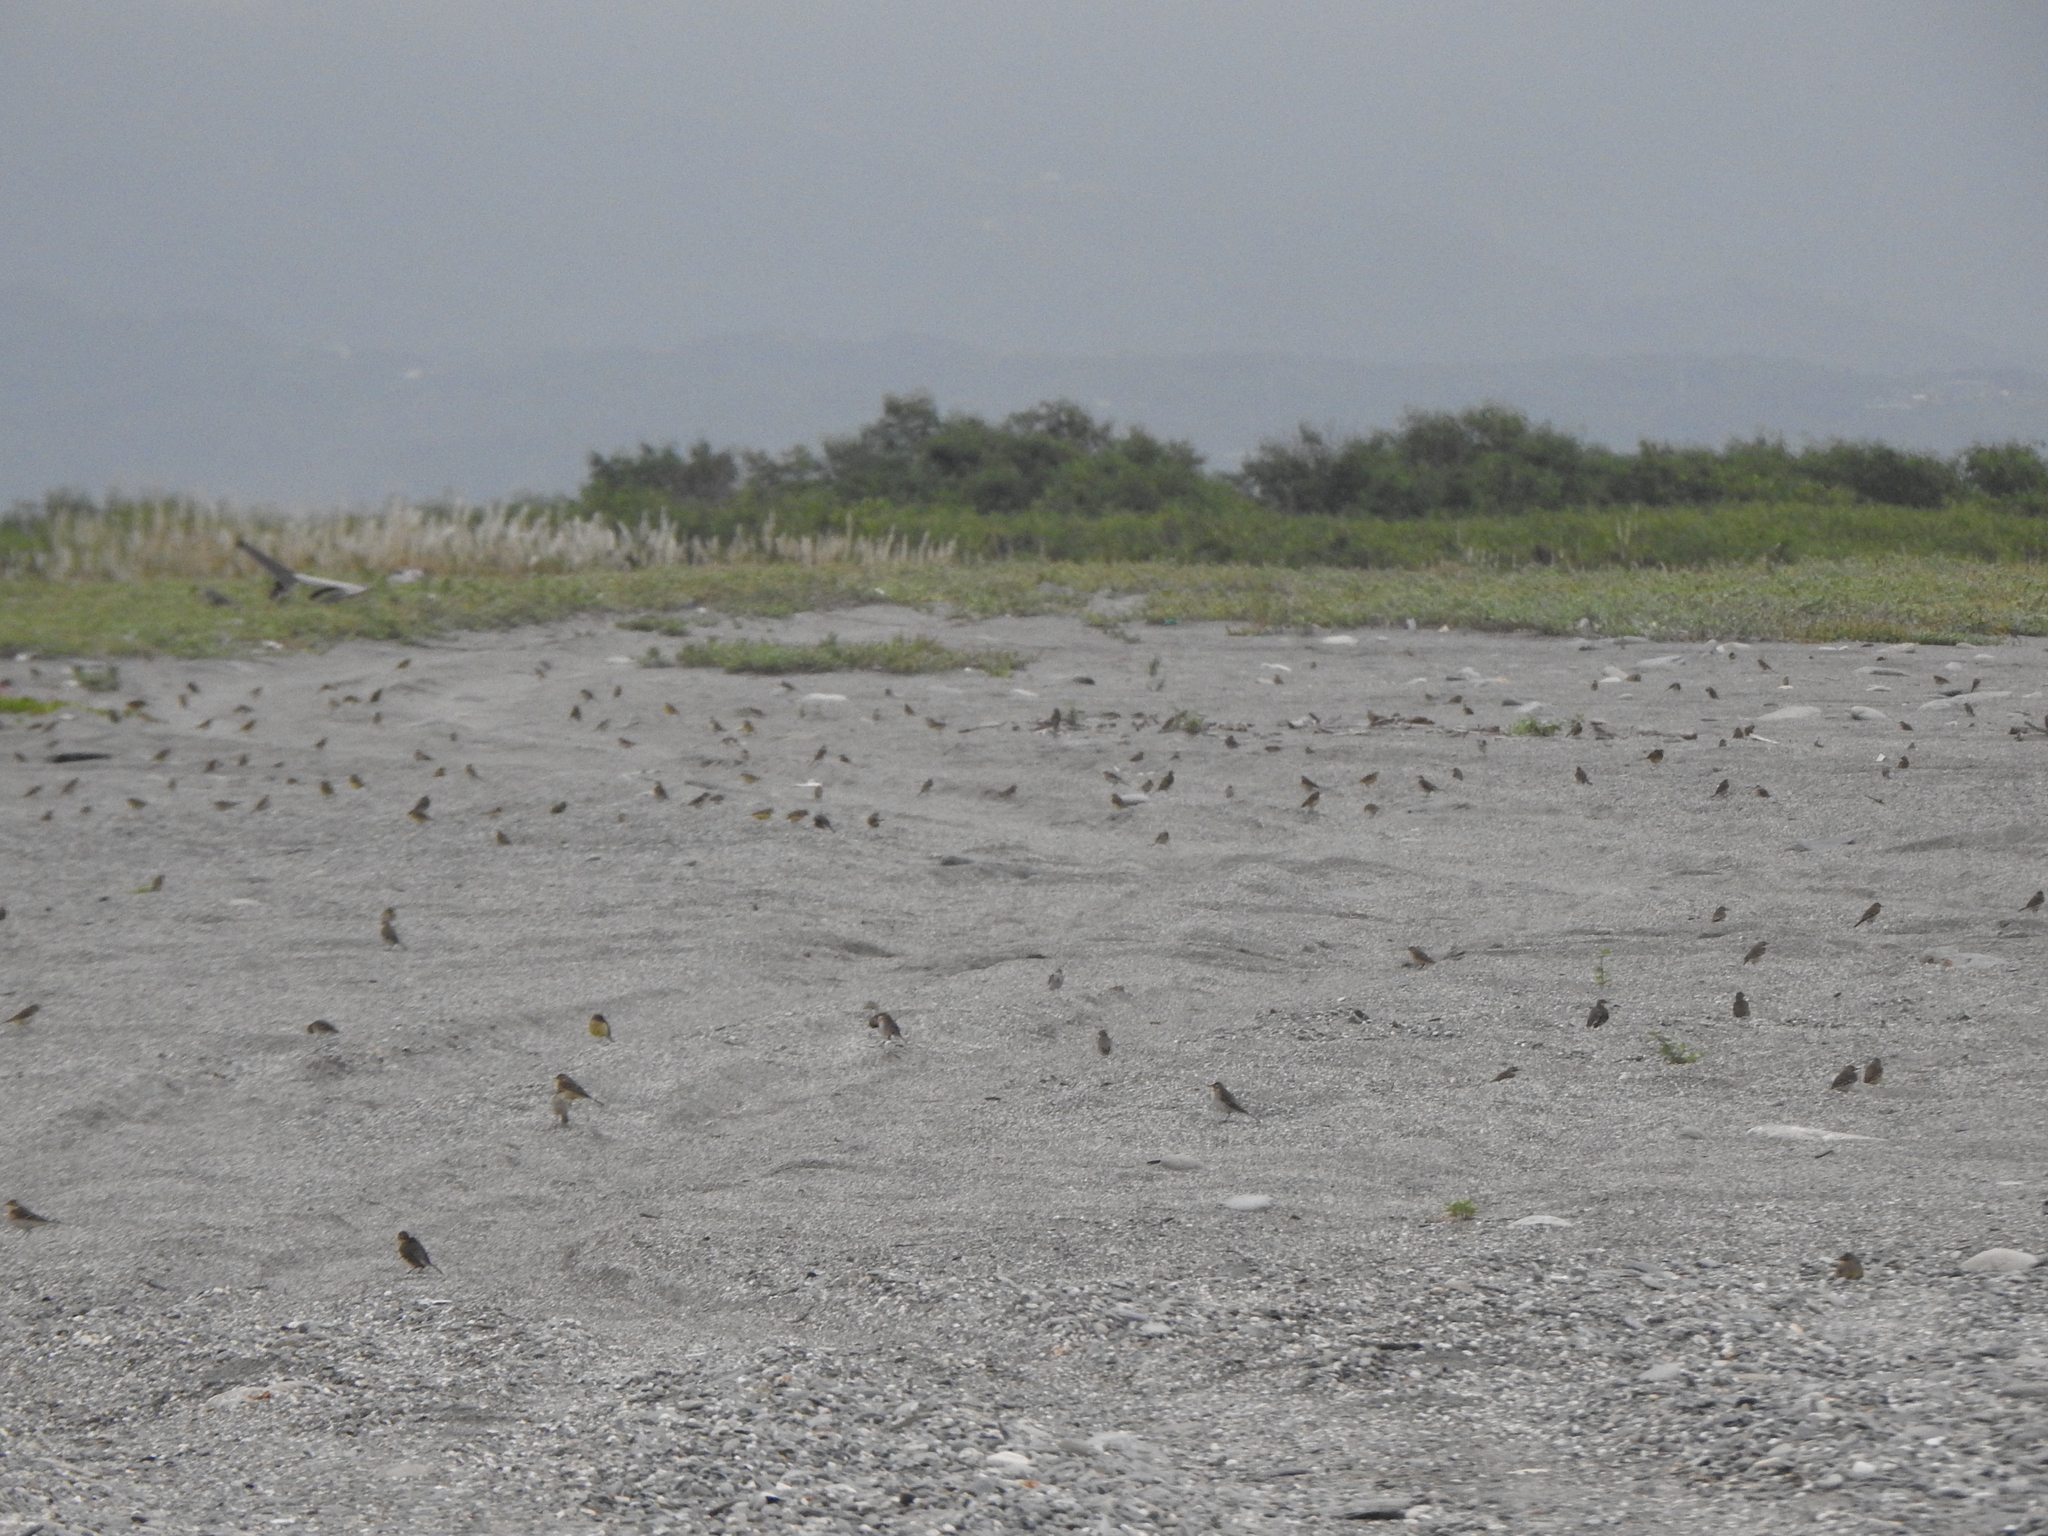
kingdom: Animalia
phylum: Chordata
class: Aves
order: Passeriformes
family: Motacillidae
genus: Motacilla
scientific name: Motacilla tschutschensis
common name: Eastern yellow wagtail
